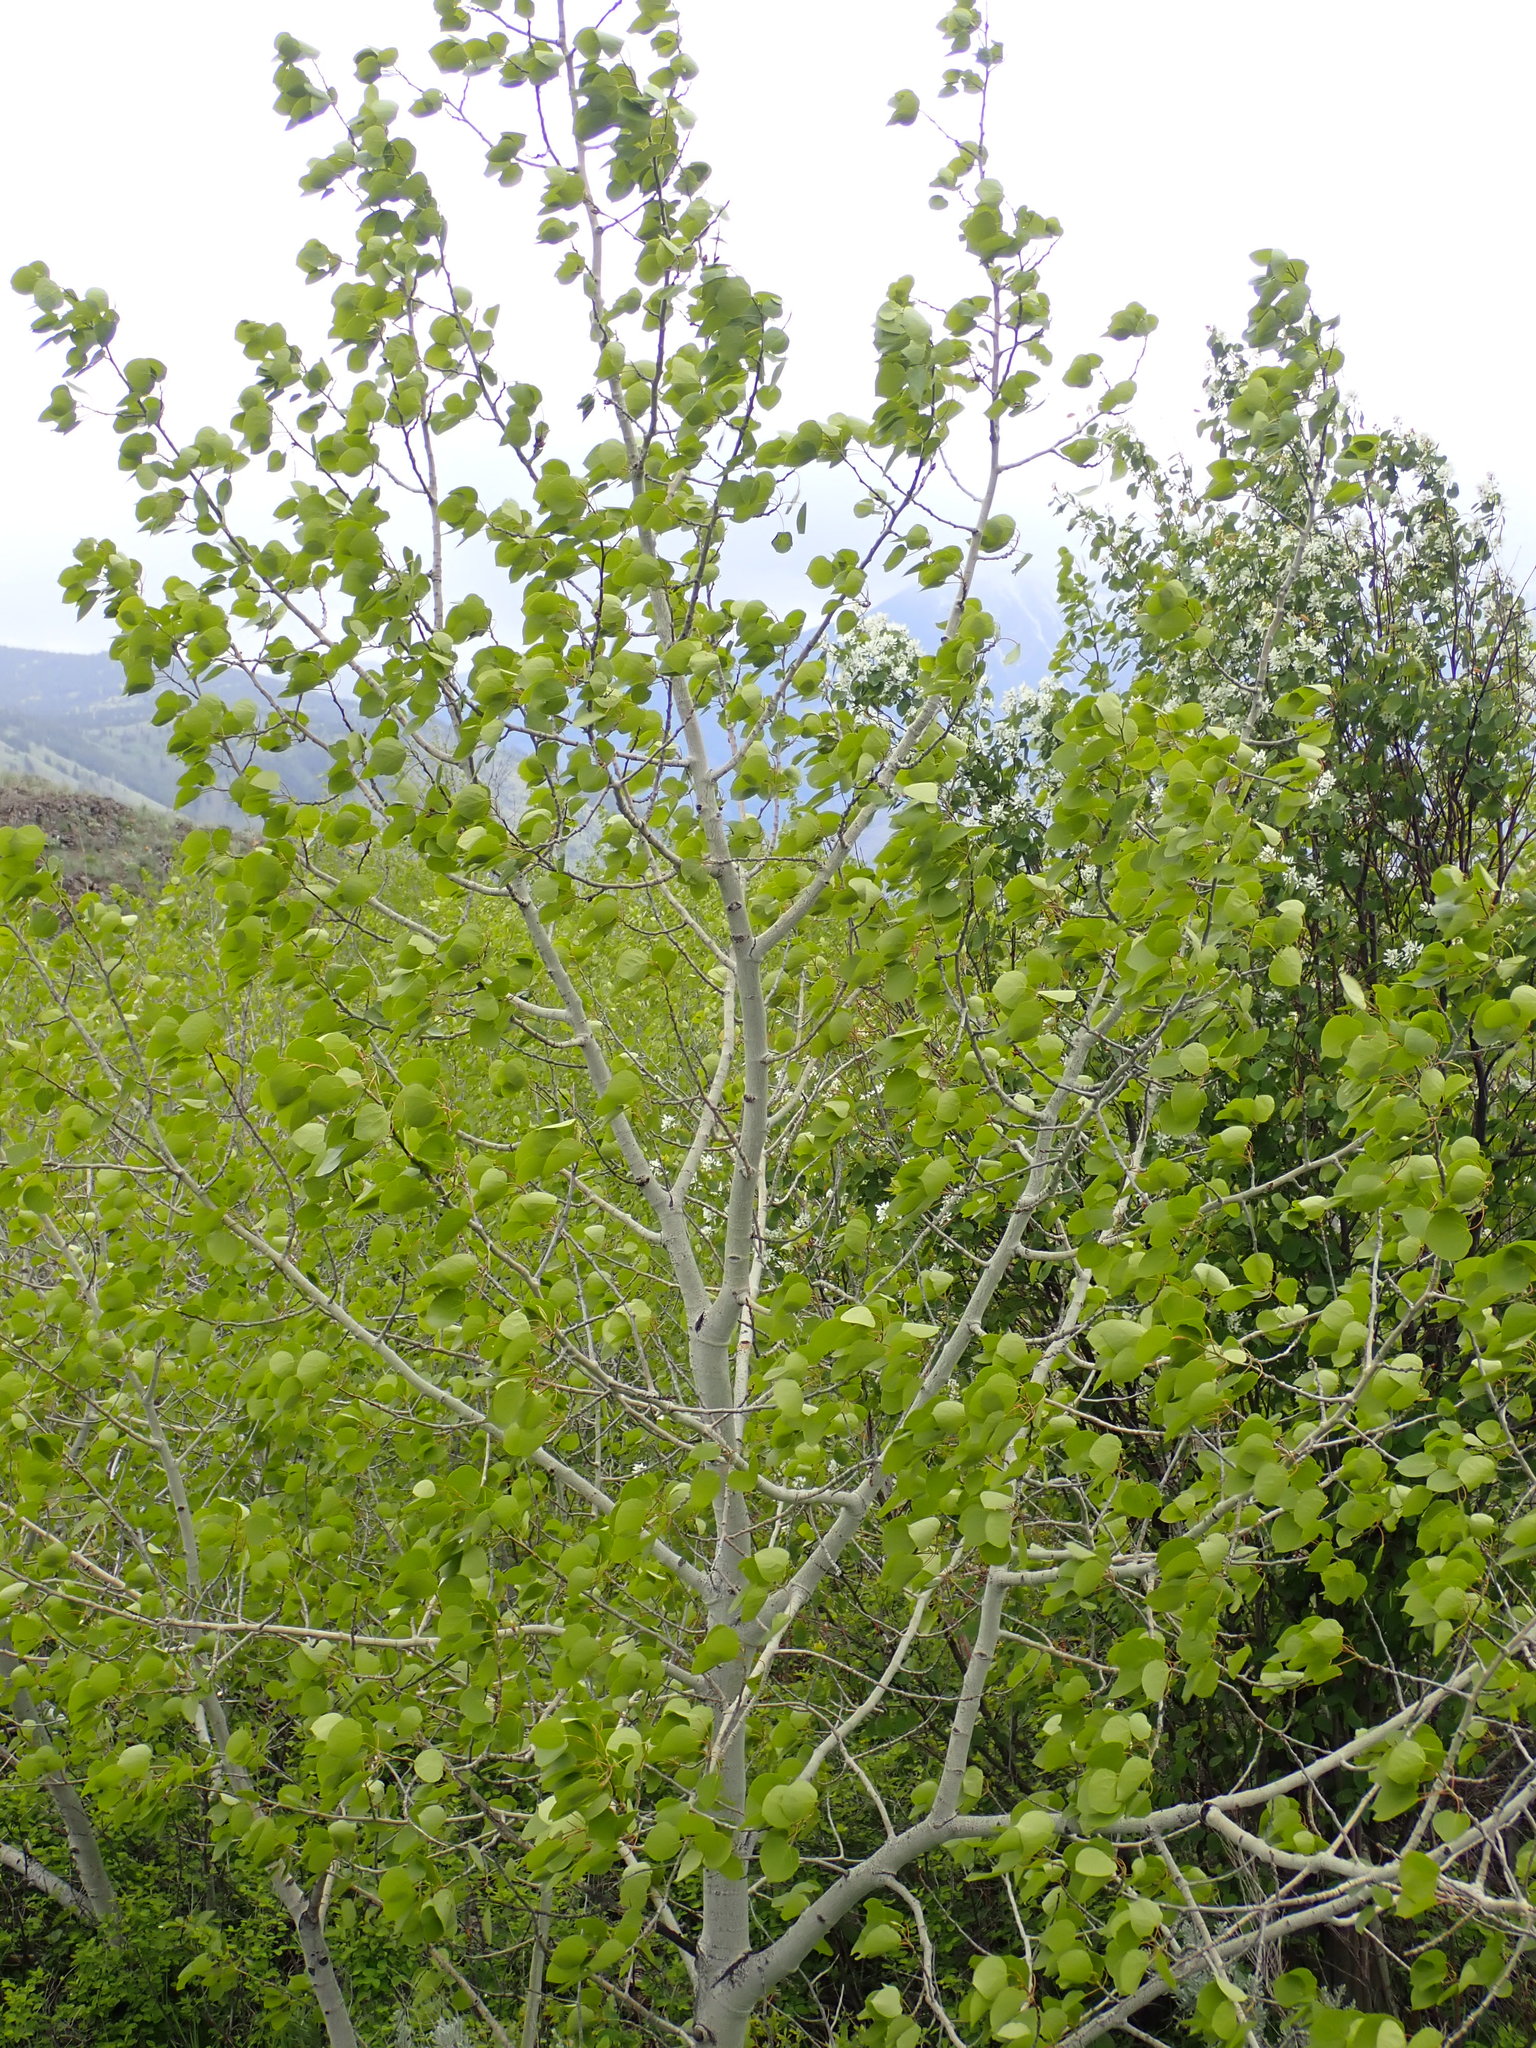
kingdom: Plantae
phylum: Tracheophyta
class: Magnoliopsida
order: Malpighiales
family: Salicaceae
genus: Populus
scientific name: Populus tremuloides
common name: Quaking aspen
